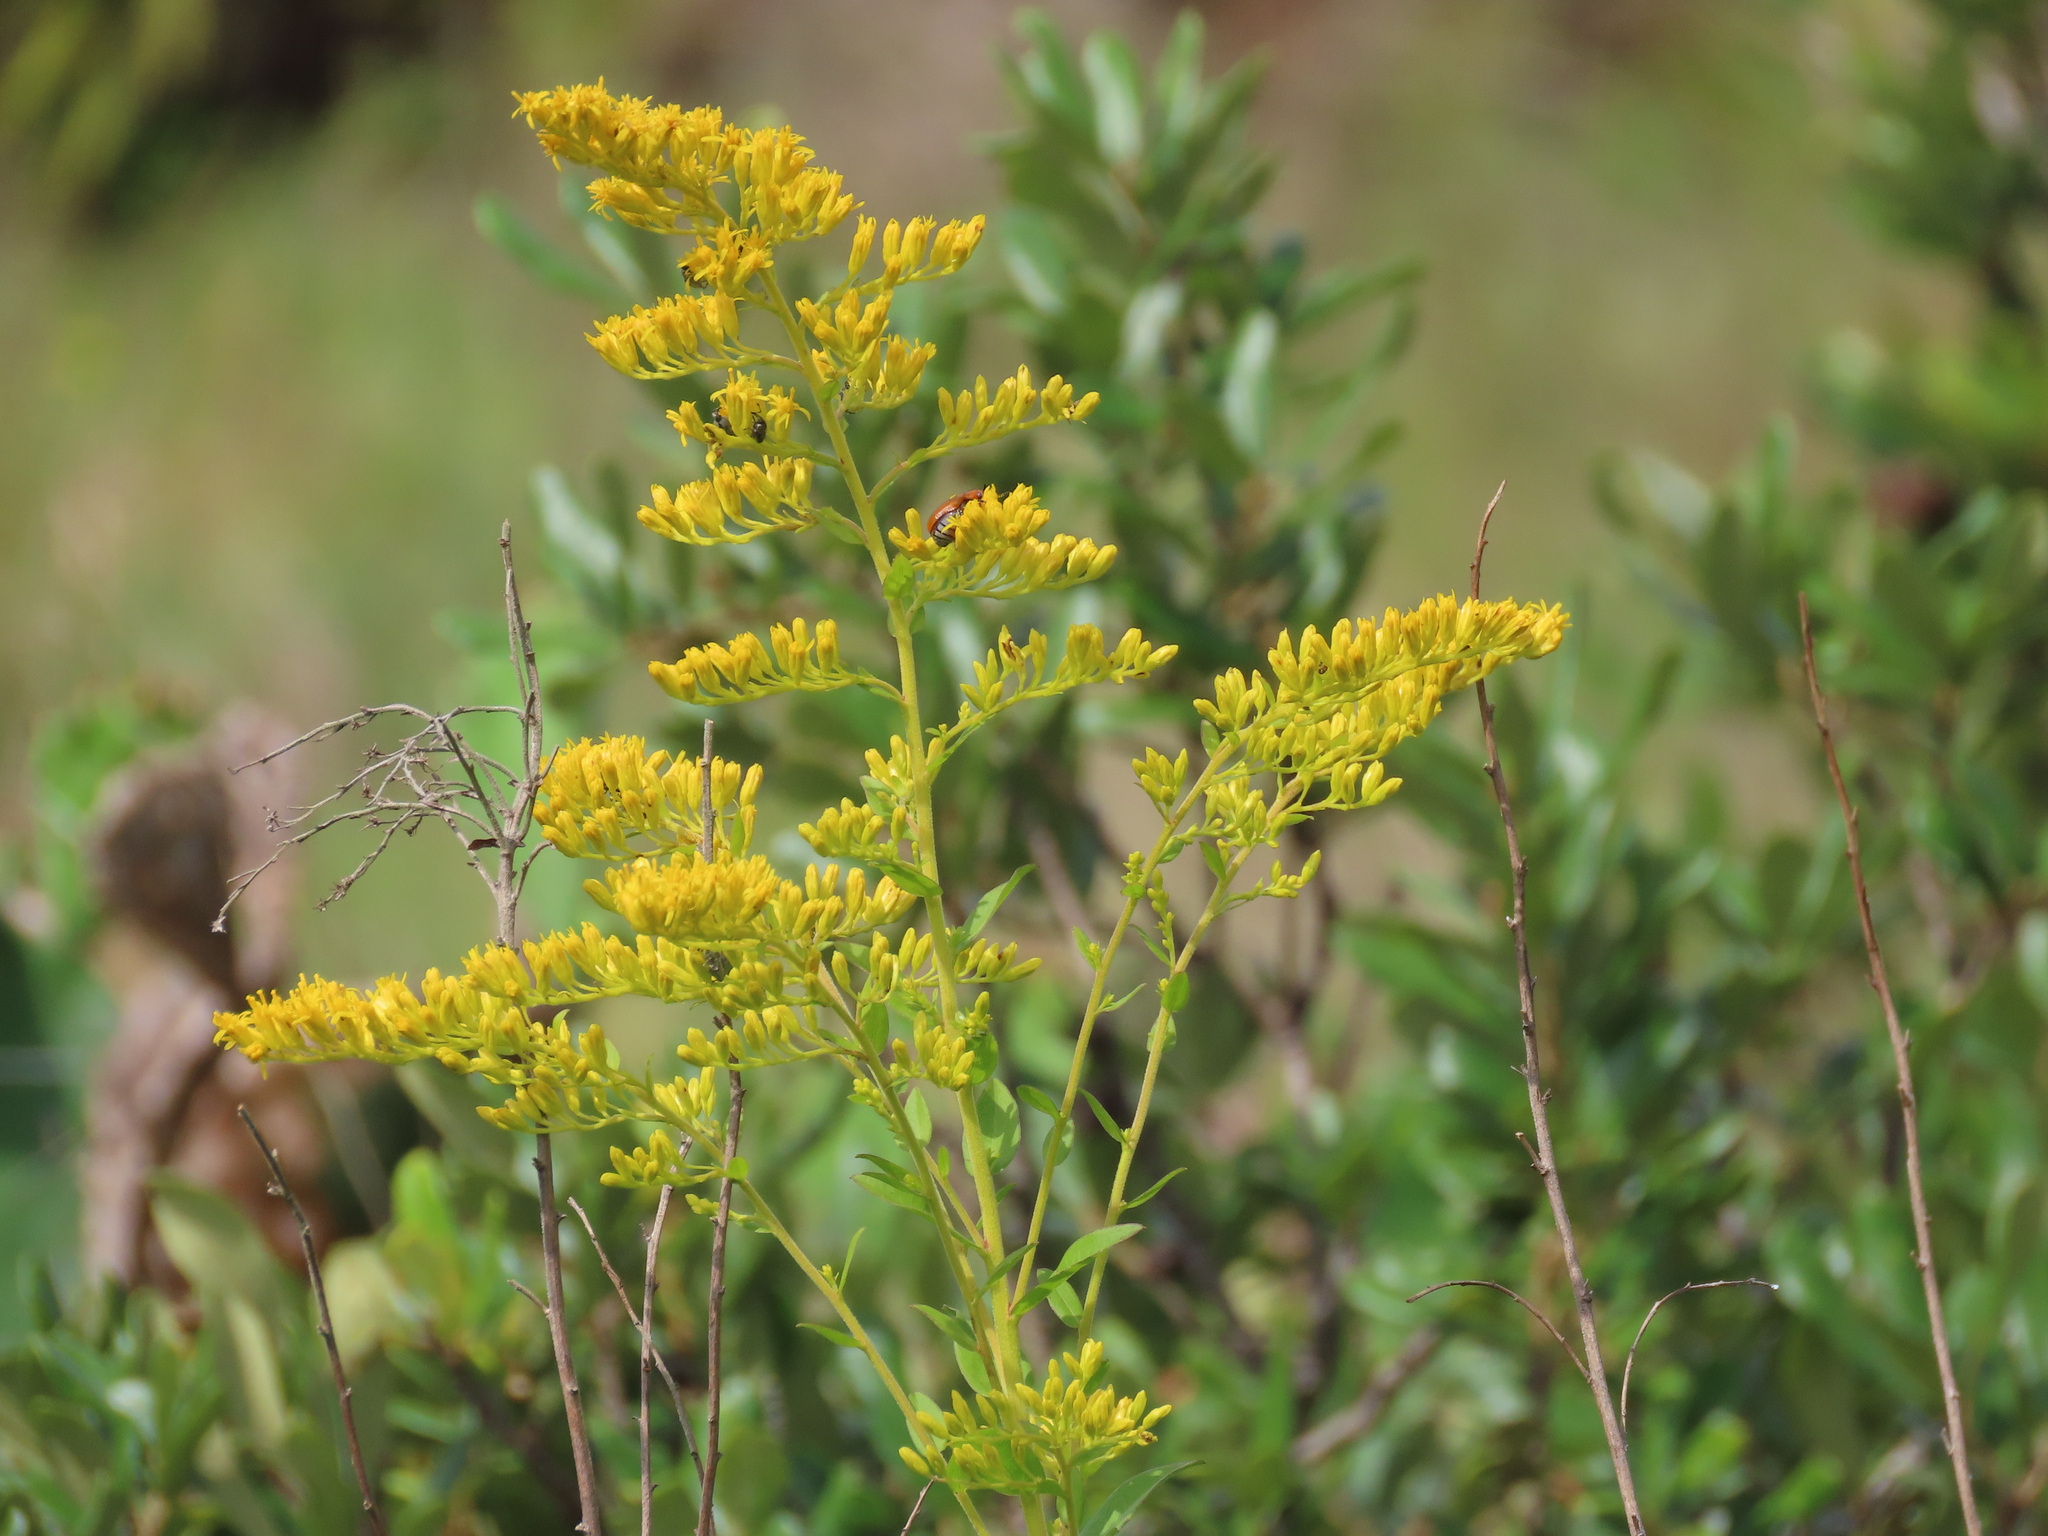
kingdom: Plantae
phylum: Tracheophyta
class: Magnoliopsida
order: Asterales
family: Asteraceae
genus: Solidago
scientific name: Solidago chapmanii
